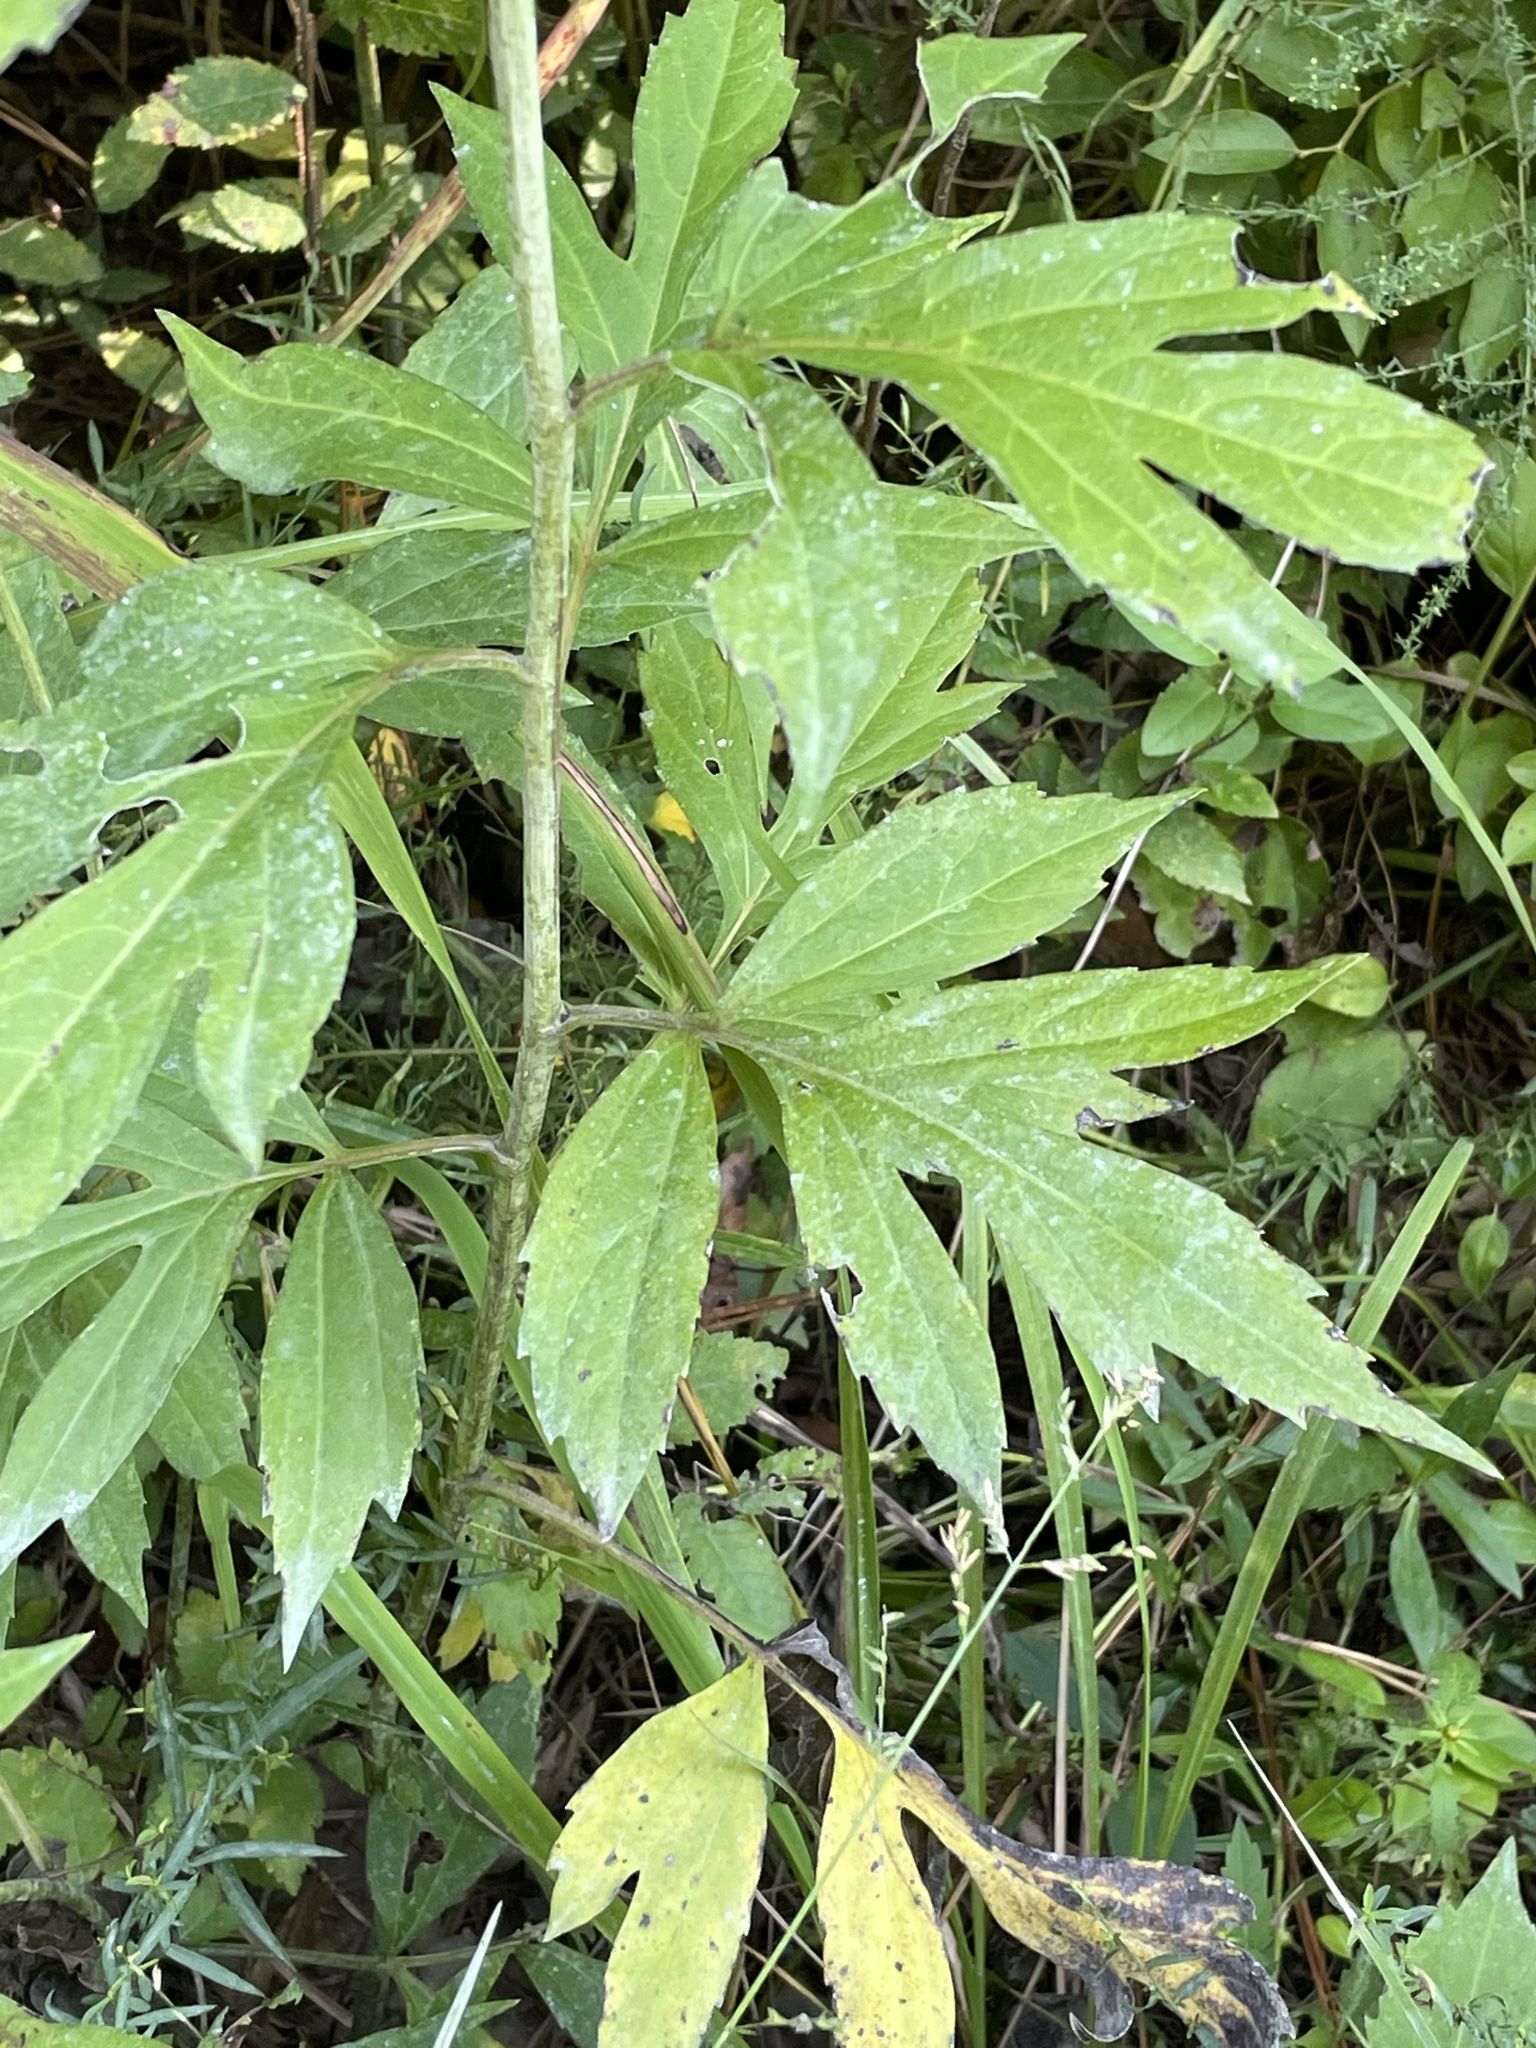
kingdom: Plantae
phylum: Tracheophyta
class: Magnoliopsida
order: Asterales
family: Asteraceae
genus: Rudbeckia
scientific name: Rudbeckia laciniata
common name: Coneflower
